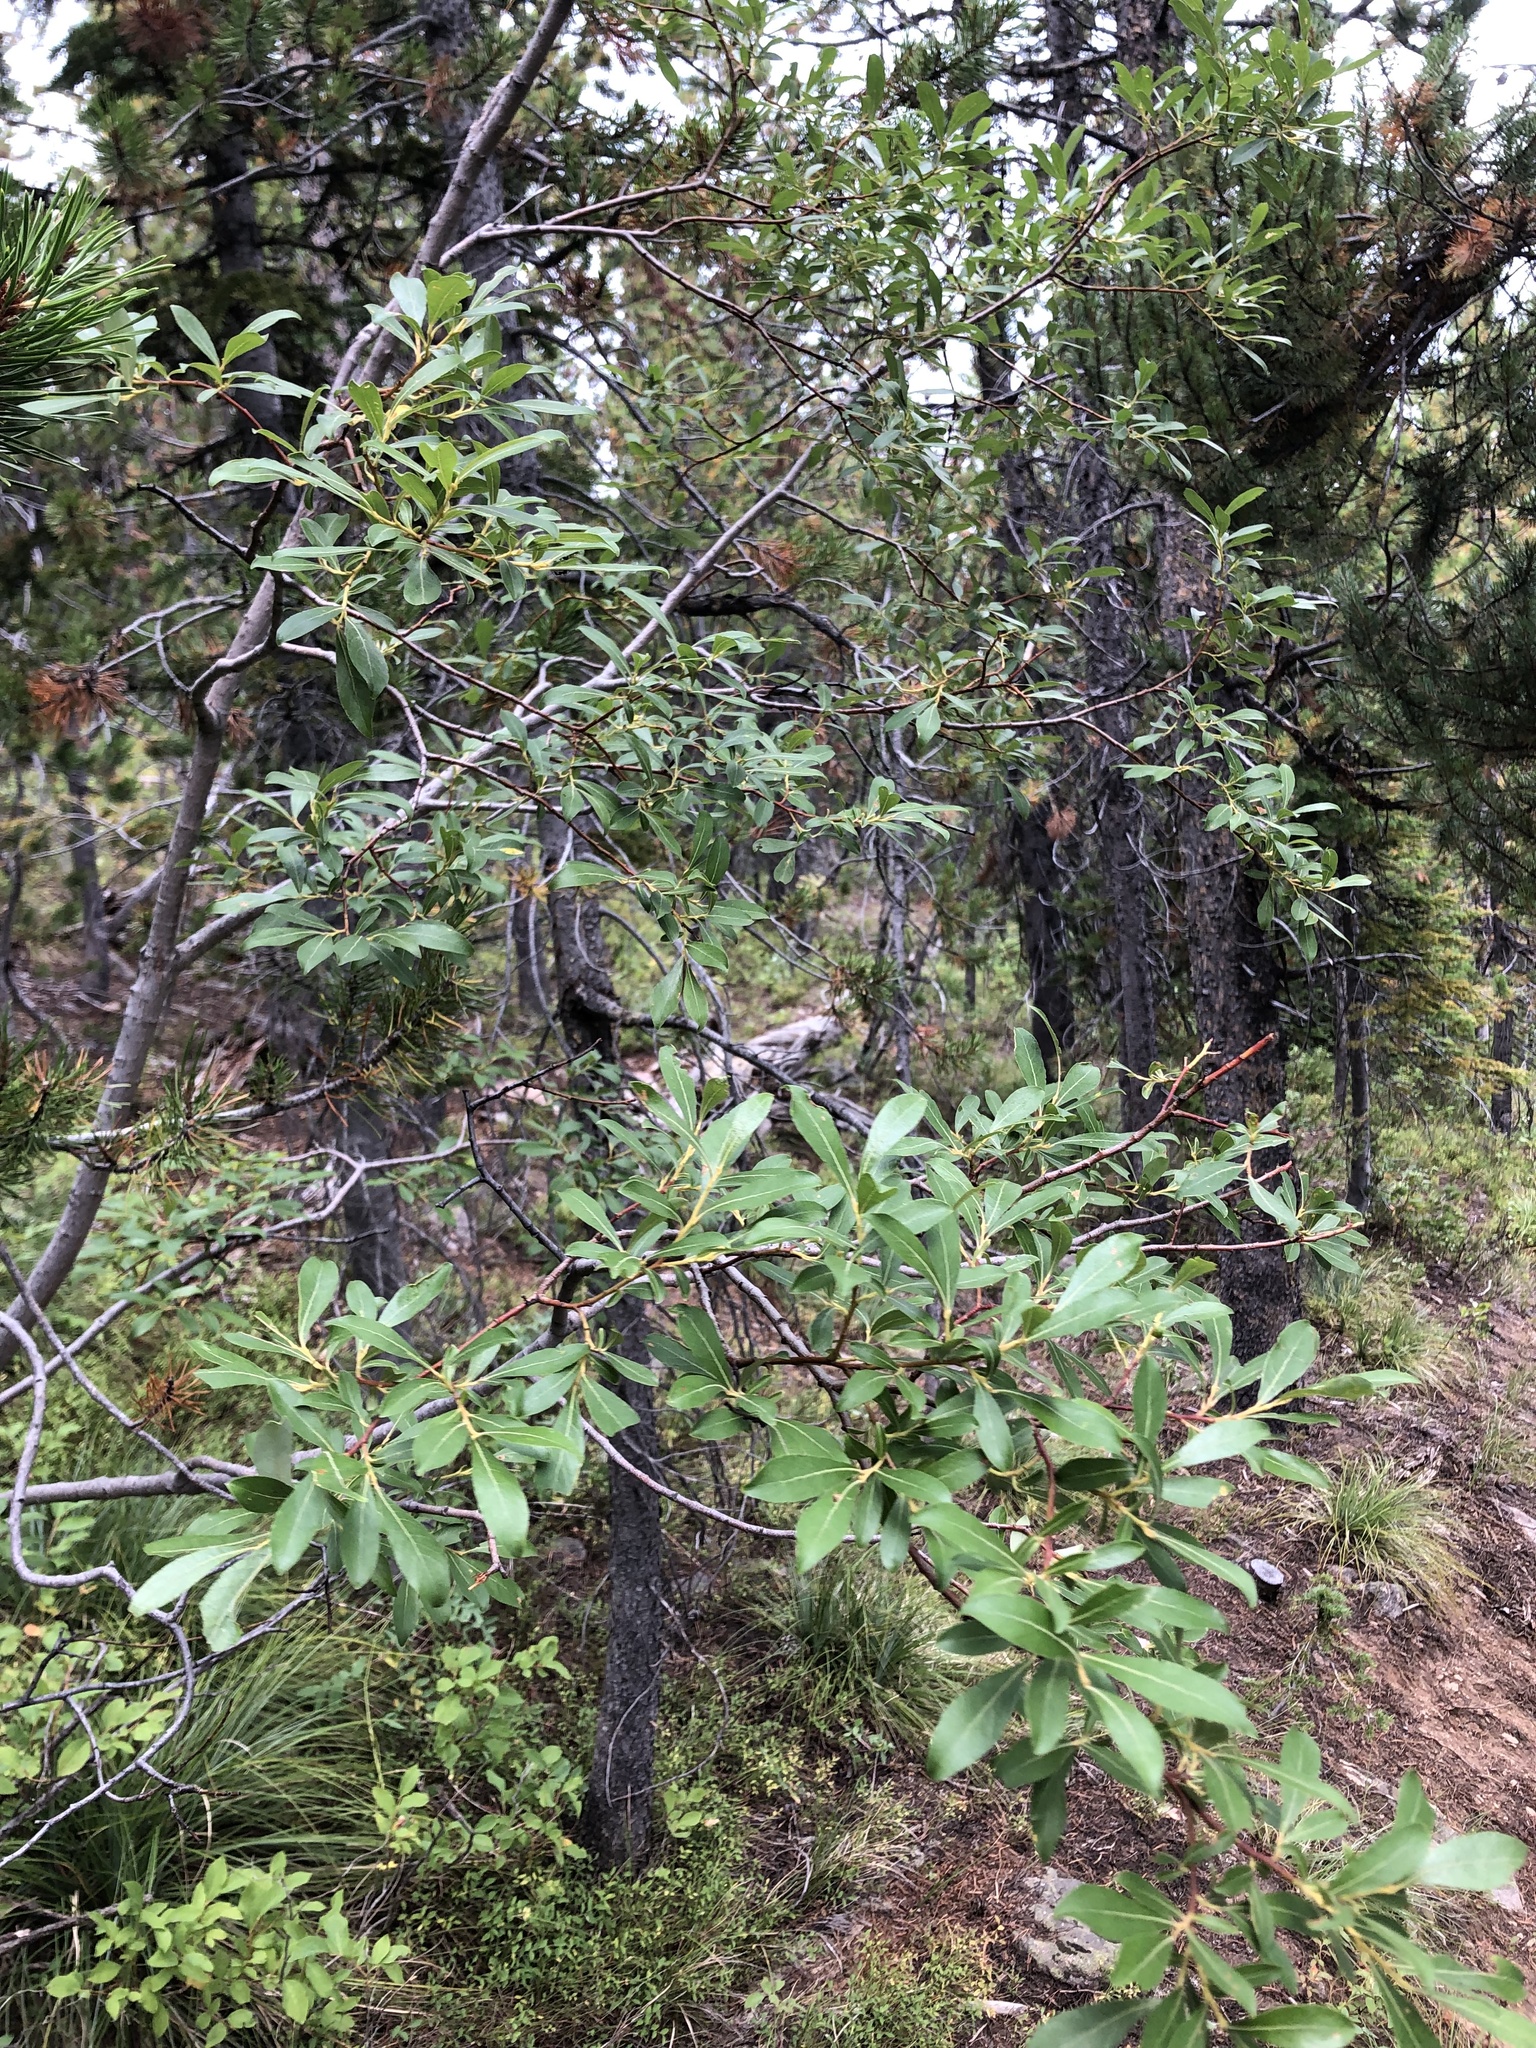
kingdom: Plantae
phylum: Tracheophyta
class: Magnoliopsida
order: Malpighiales
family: Salicaceae
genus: Salix
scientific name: Salix scouleriana
